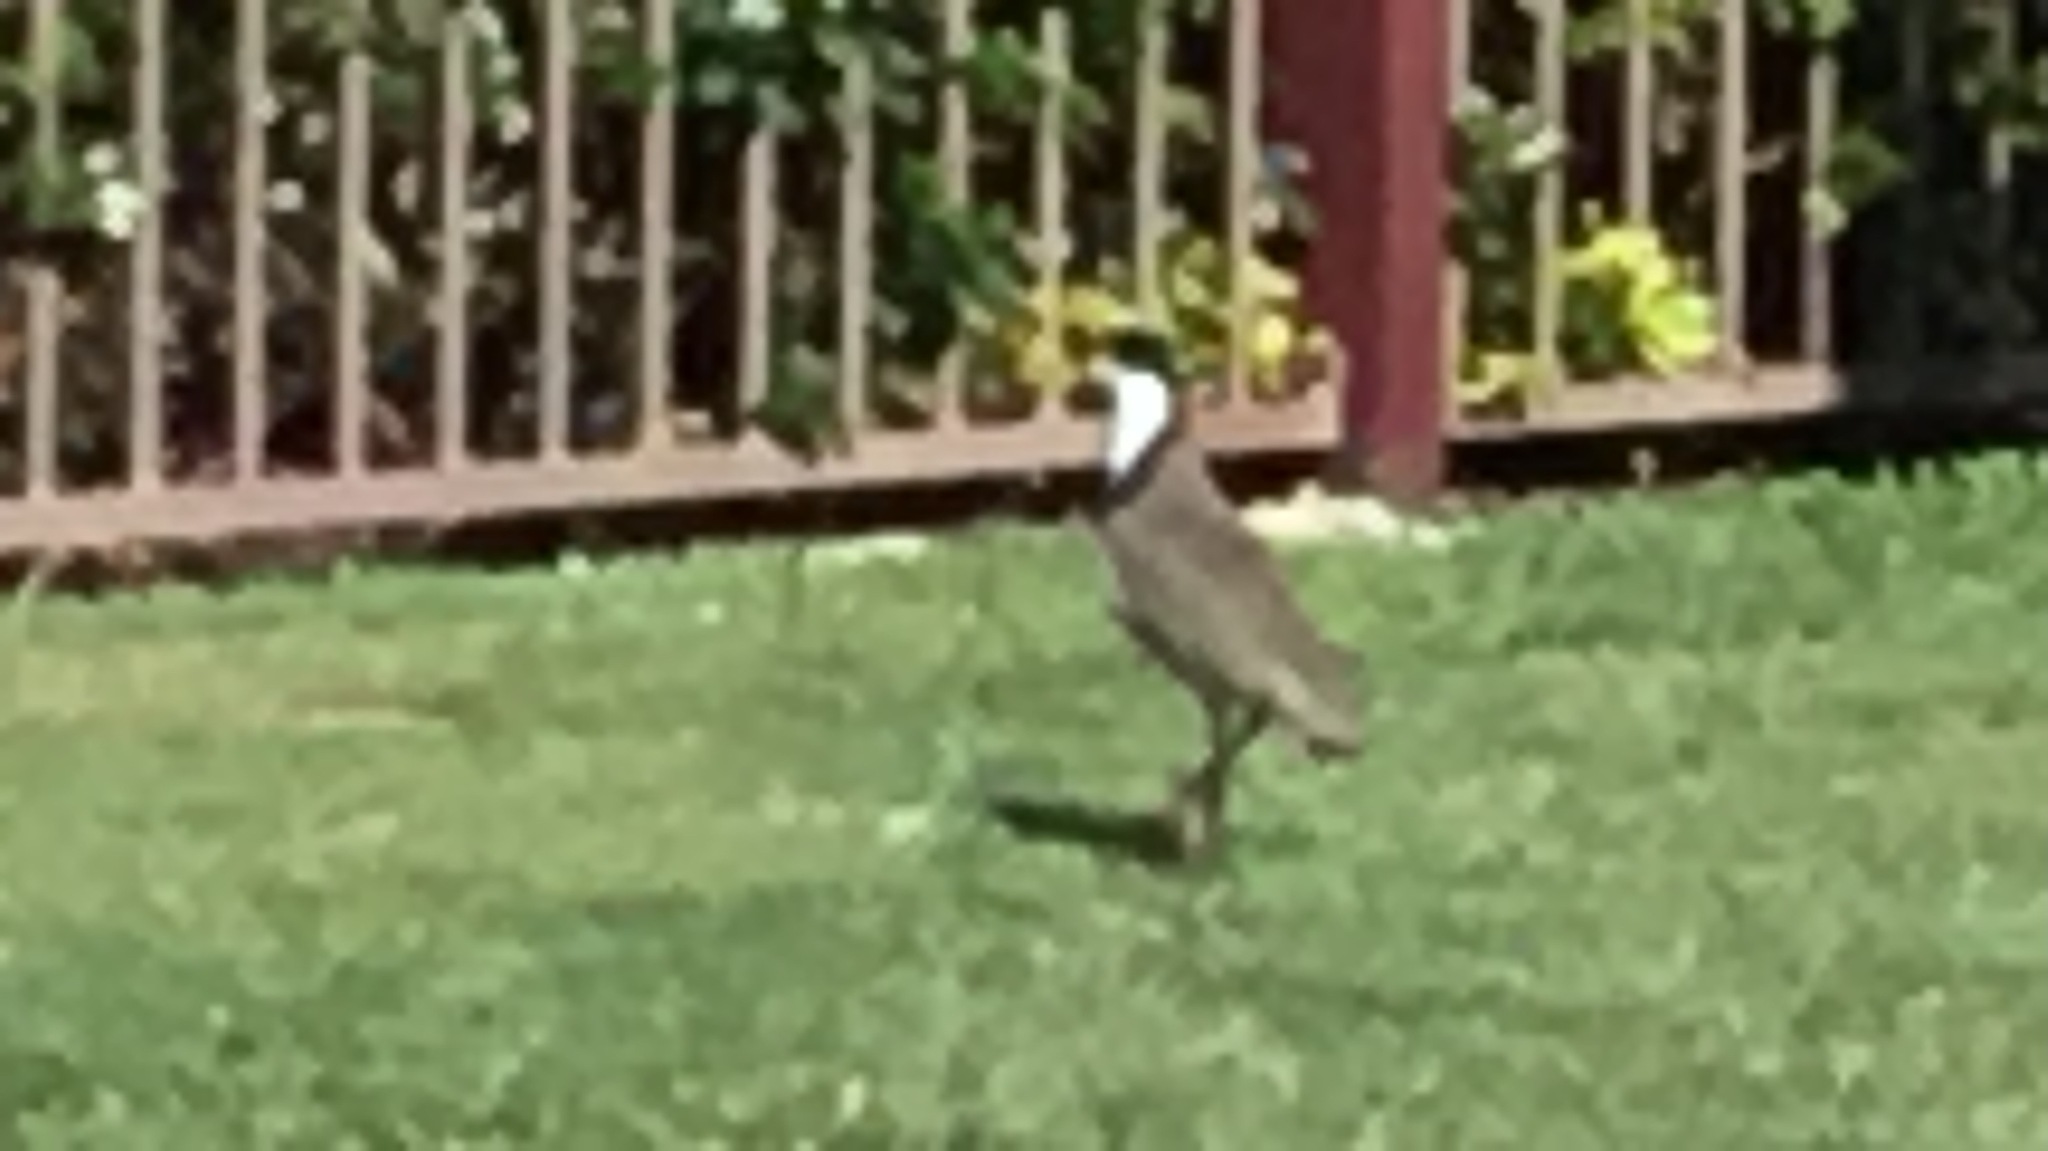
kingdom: Animalia
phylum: Chordata
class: Aves
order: Charadriiformes
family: Charadriidae
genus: Vanellus
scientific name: Vanellus miles
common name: Masked lapwing
